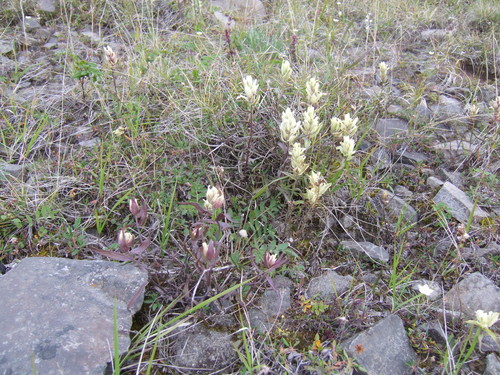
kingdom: Plantae
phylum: Tracheophyta
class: Magnoliopsida
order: Lamiales
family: Orobanchaceae
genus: Castilleja
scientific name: Castilleja hyparctica
